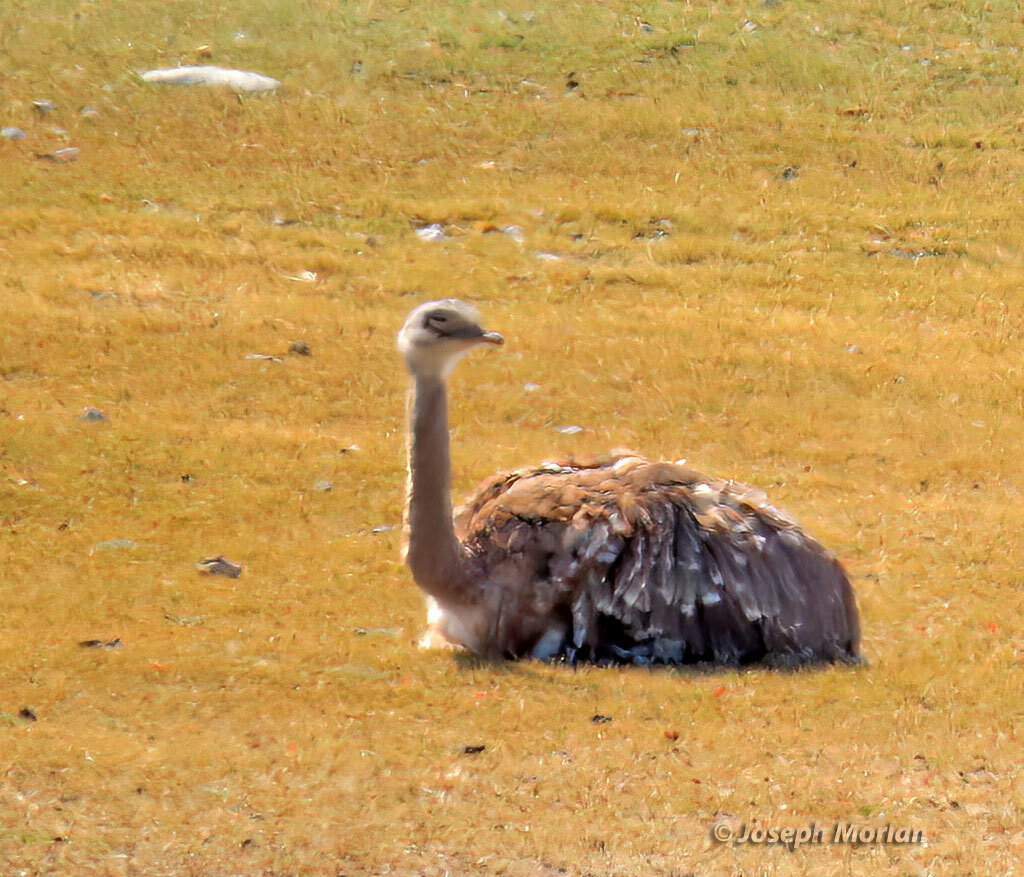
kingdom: Animalia
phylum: Chordata
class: Aves
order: Rheiformes
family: Rheidae
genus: Rhea
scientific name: Rhea pennata
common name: Lesser rhea
